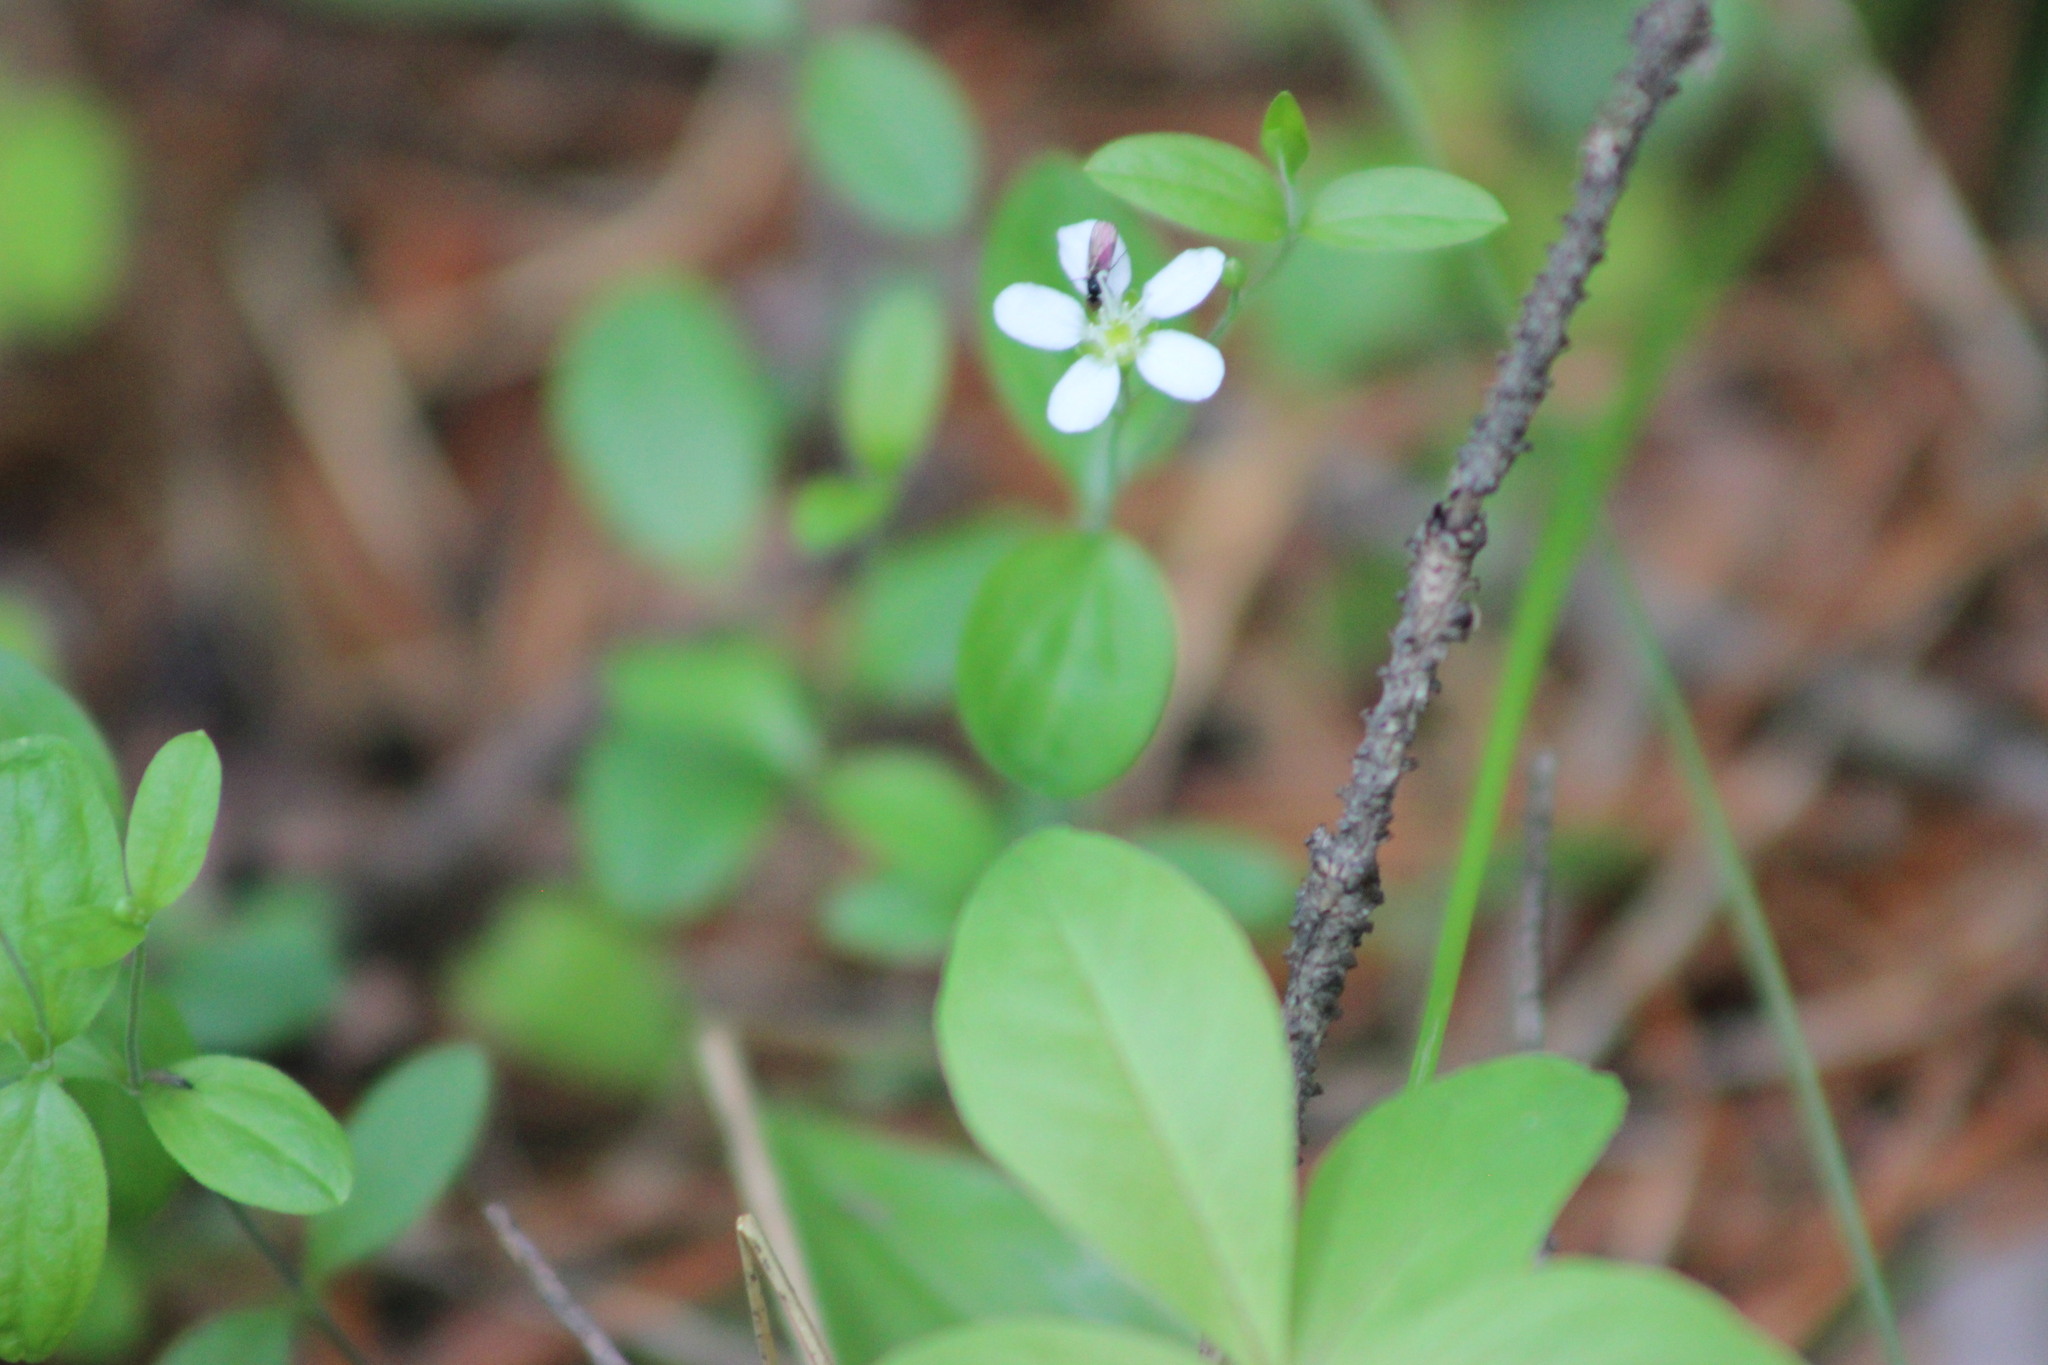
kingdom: Plantae
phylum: Tracheophyta
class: Magnoliopsida
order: Caryophyllales
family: Caryophyllaceae
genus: Moehringia
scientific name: Moehringia lateriflora
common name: Blunt-leaved sandwort
